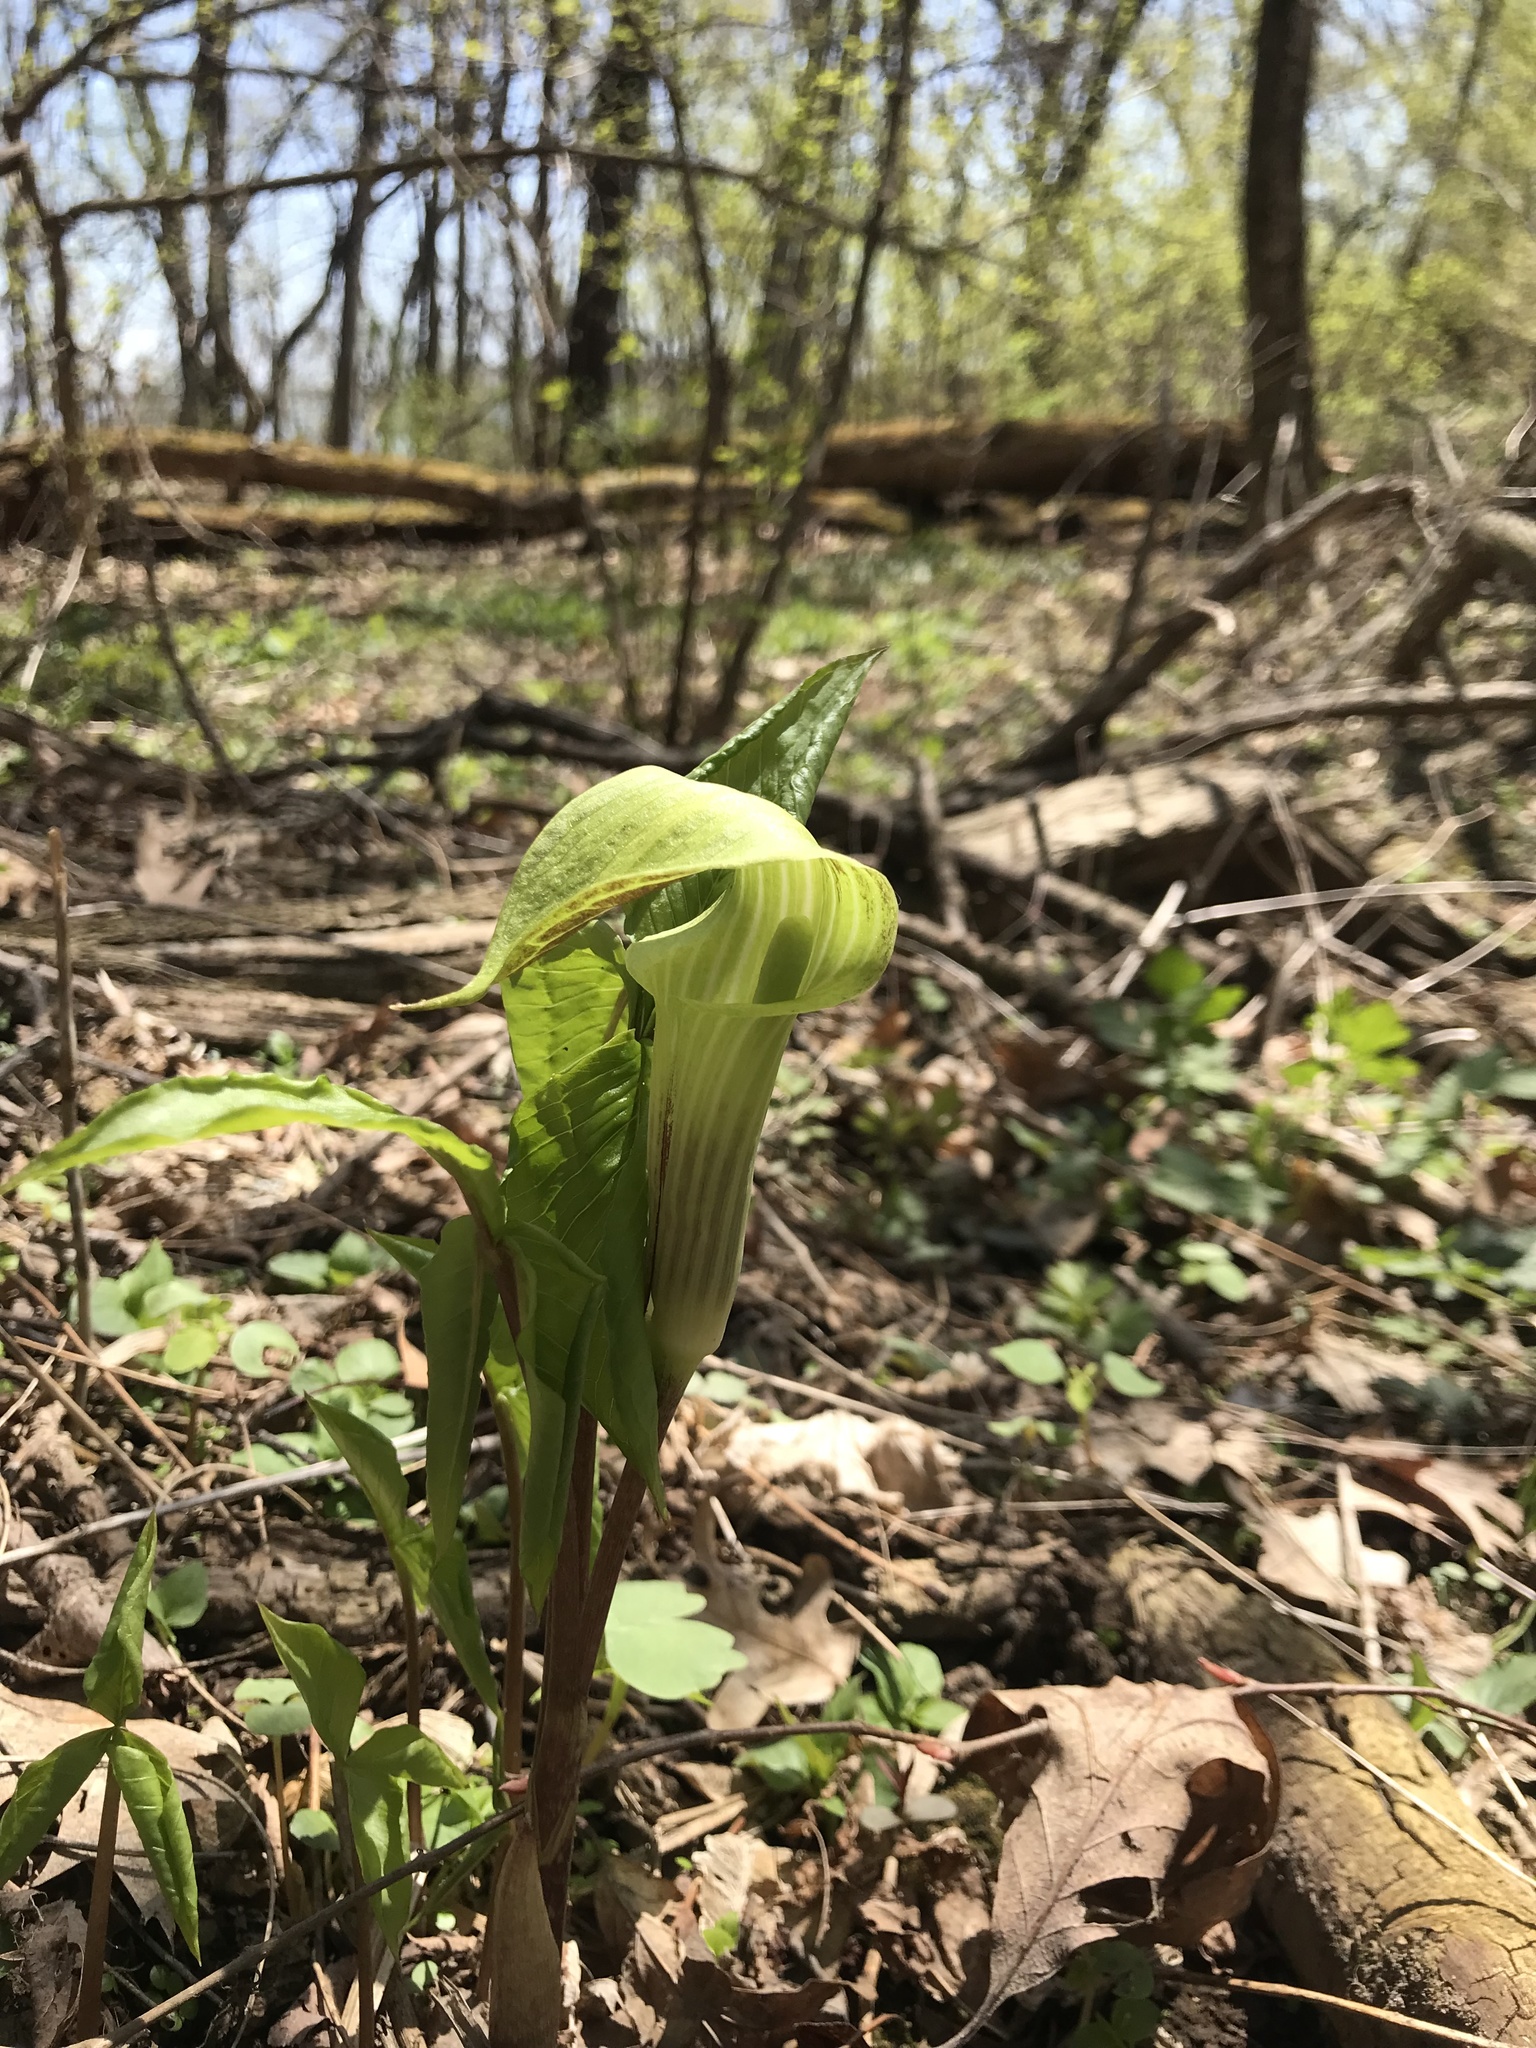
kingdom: Plantae
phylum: Tracheophyta
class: Liliopsida
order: Alismatales
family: Araceae
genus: Arisaema
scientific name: Arisaema triphyllum
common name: Jack-in-the-pulpit
